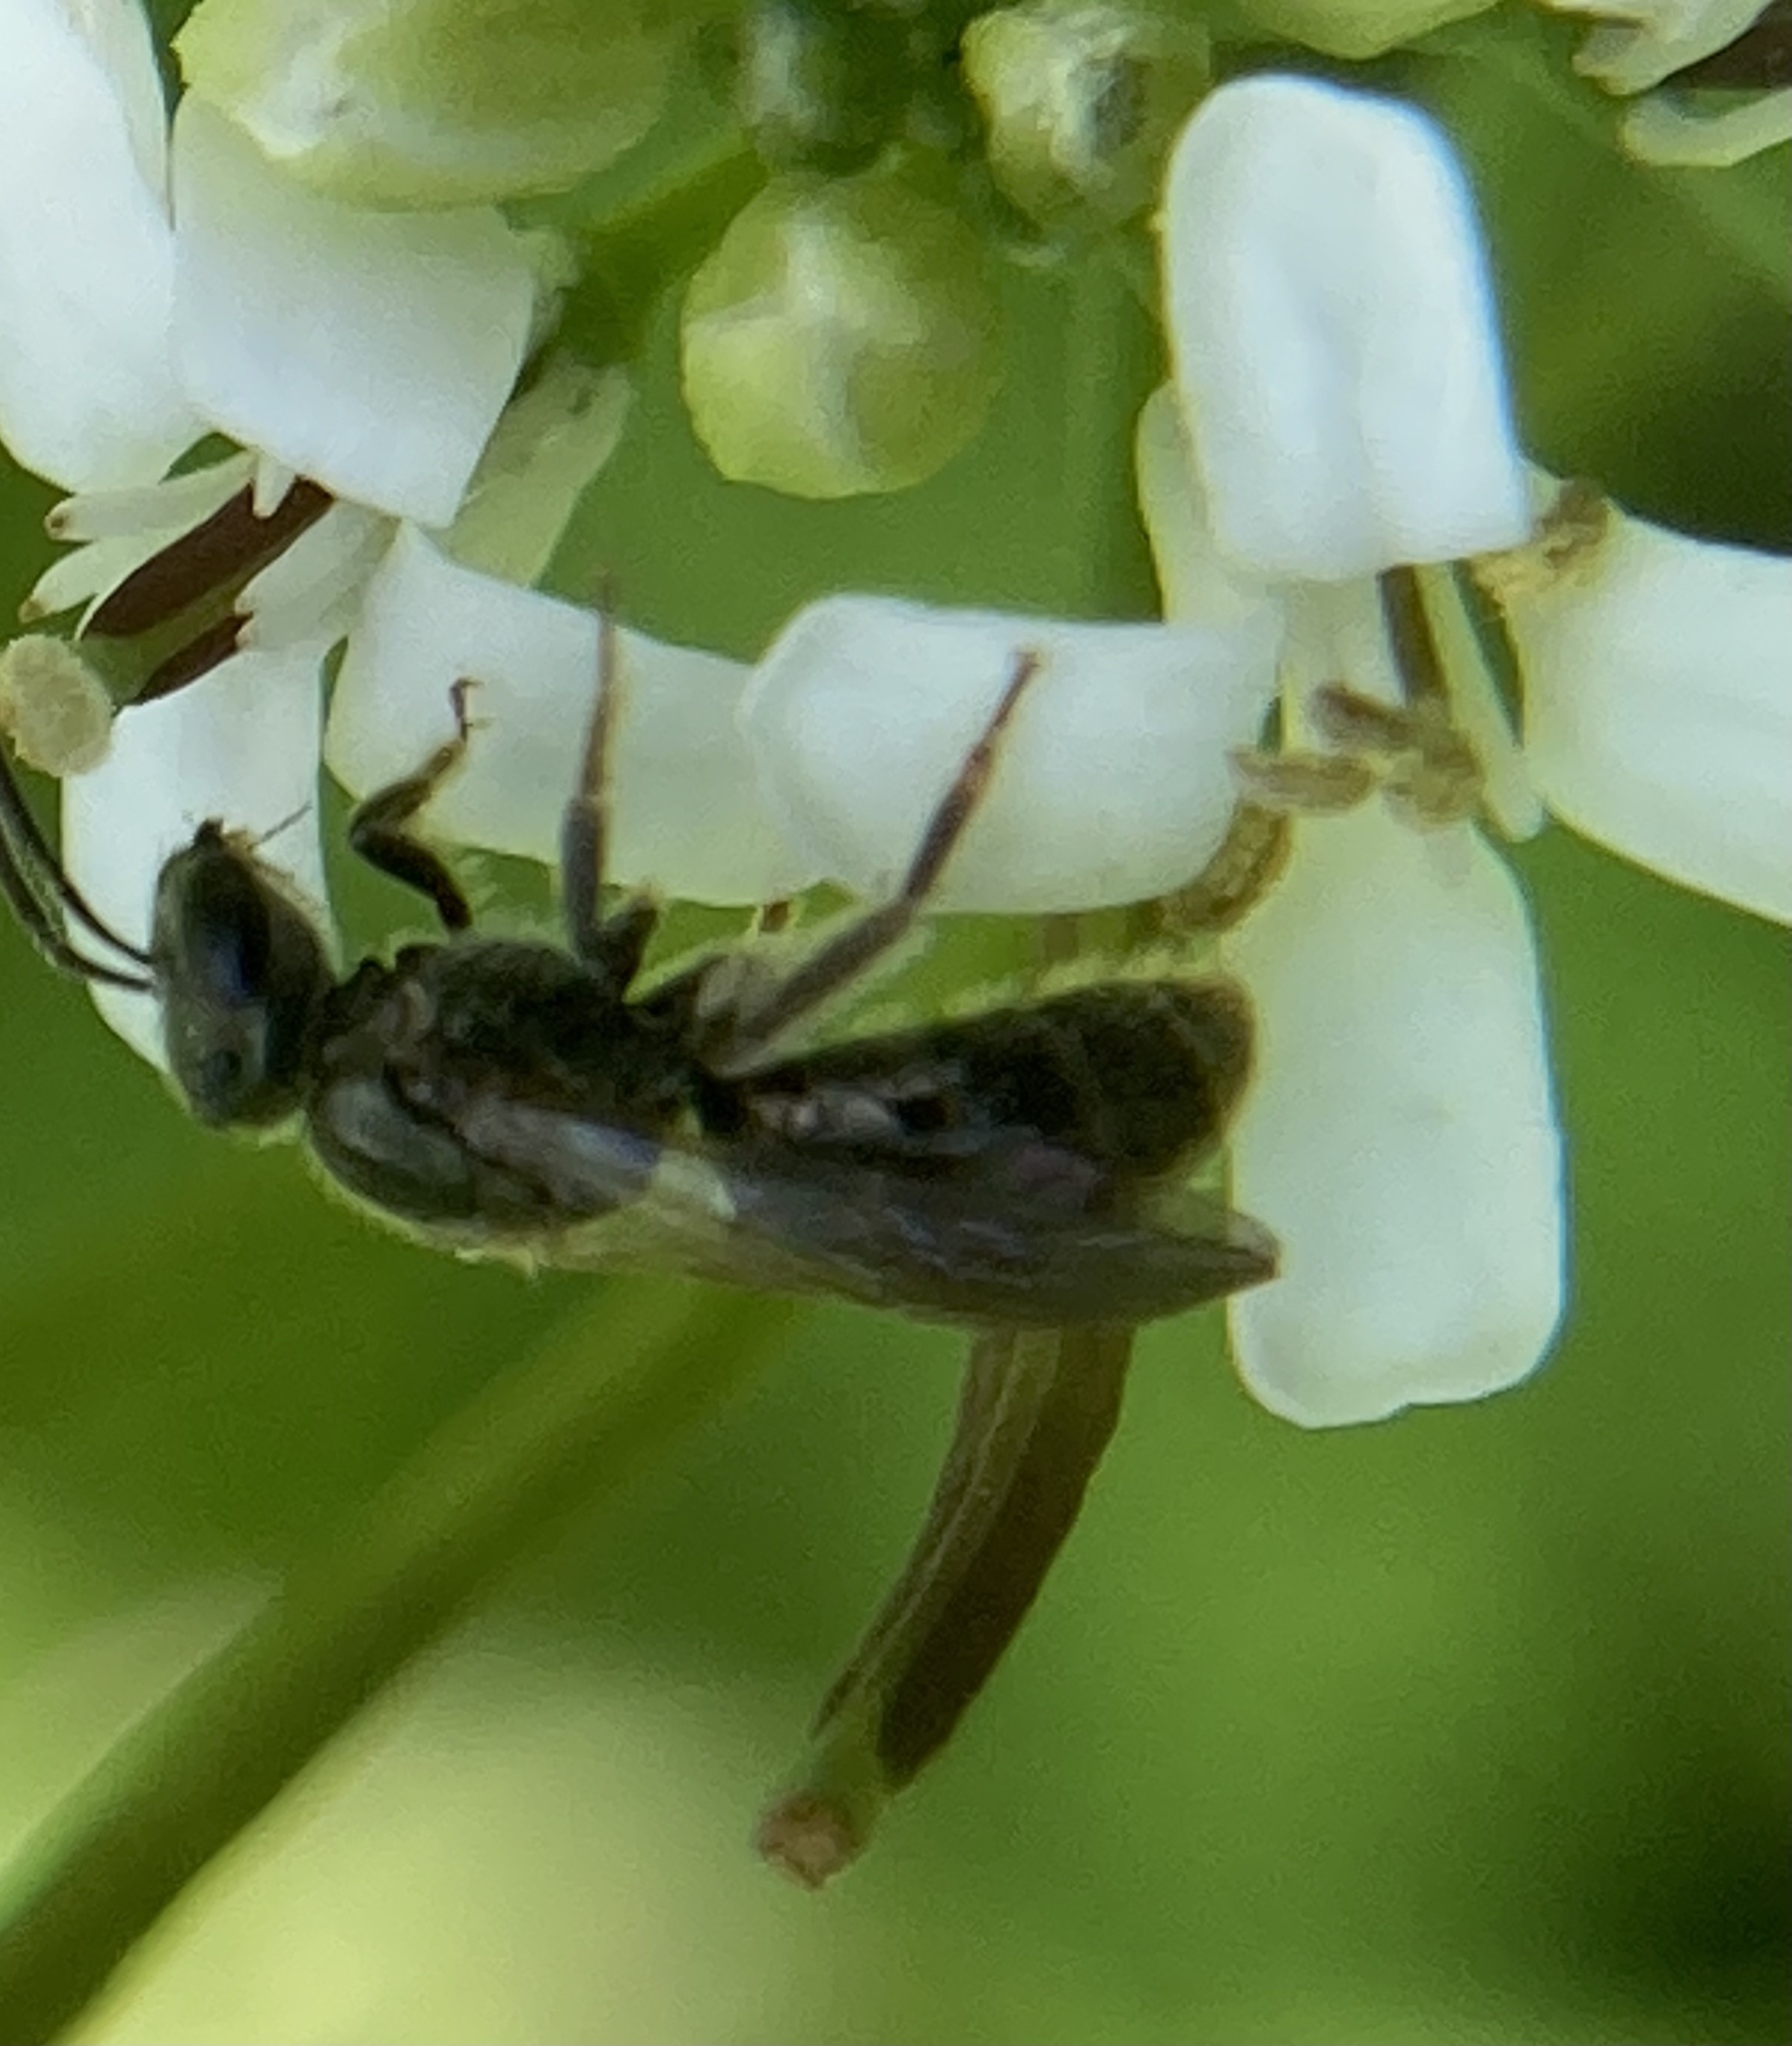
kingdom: Animalia
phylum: Arthropoda
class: Insecta
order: Hymenoptera
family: Halictidae
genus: Dialictus
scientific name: Dialictus
